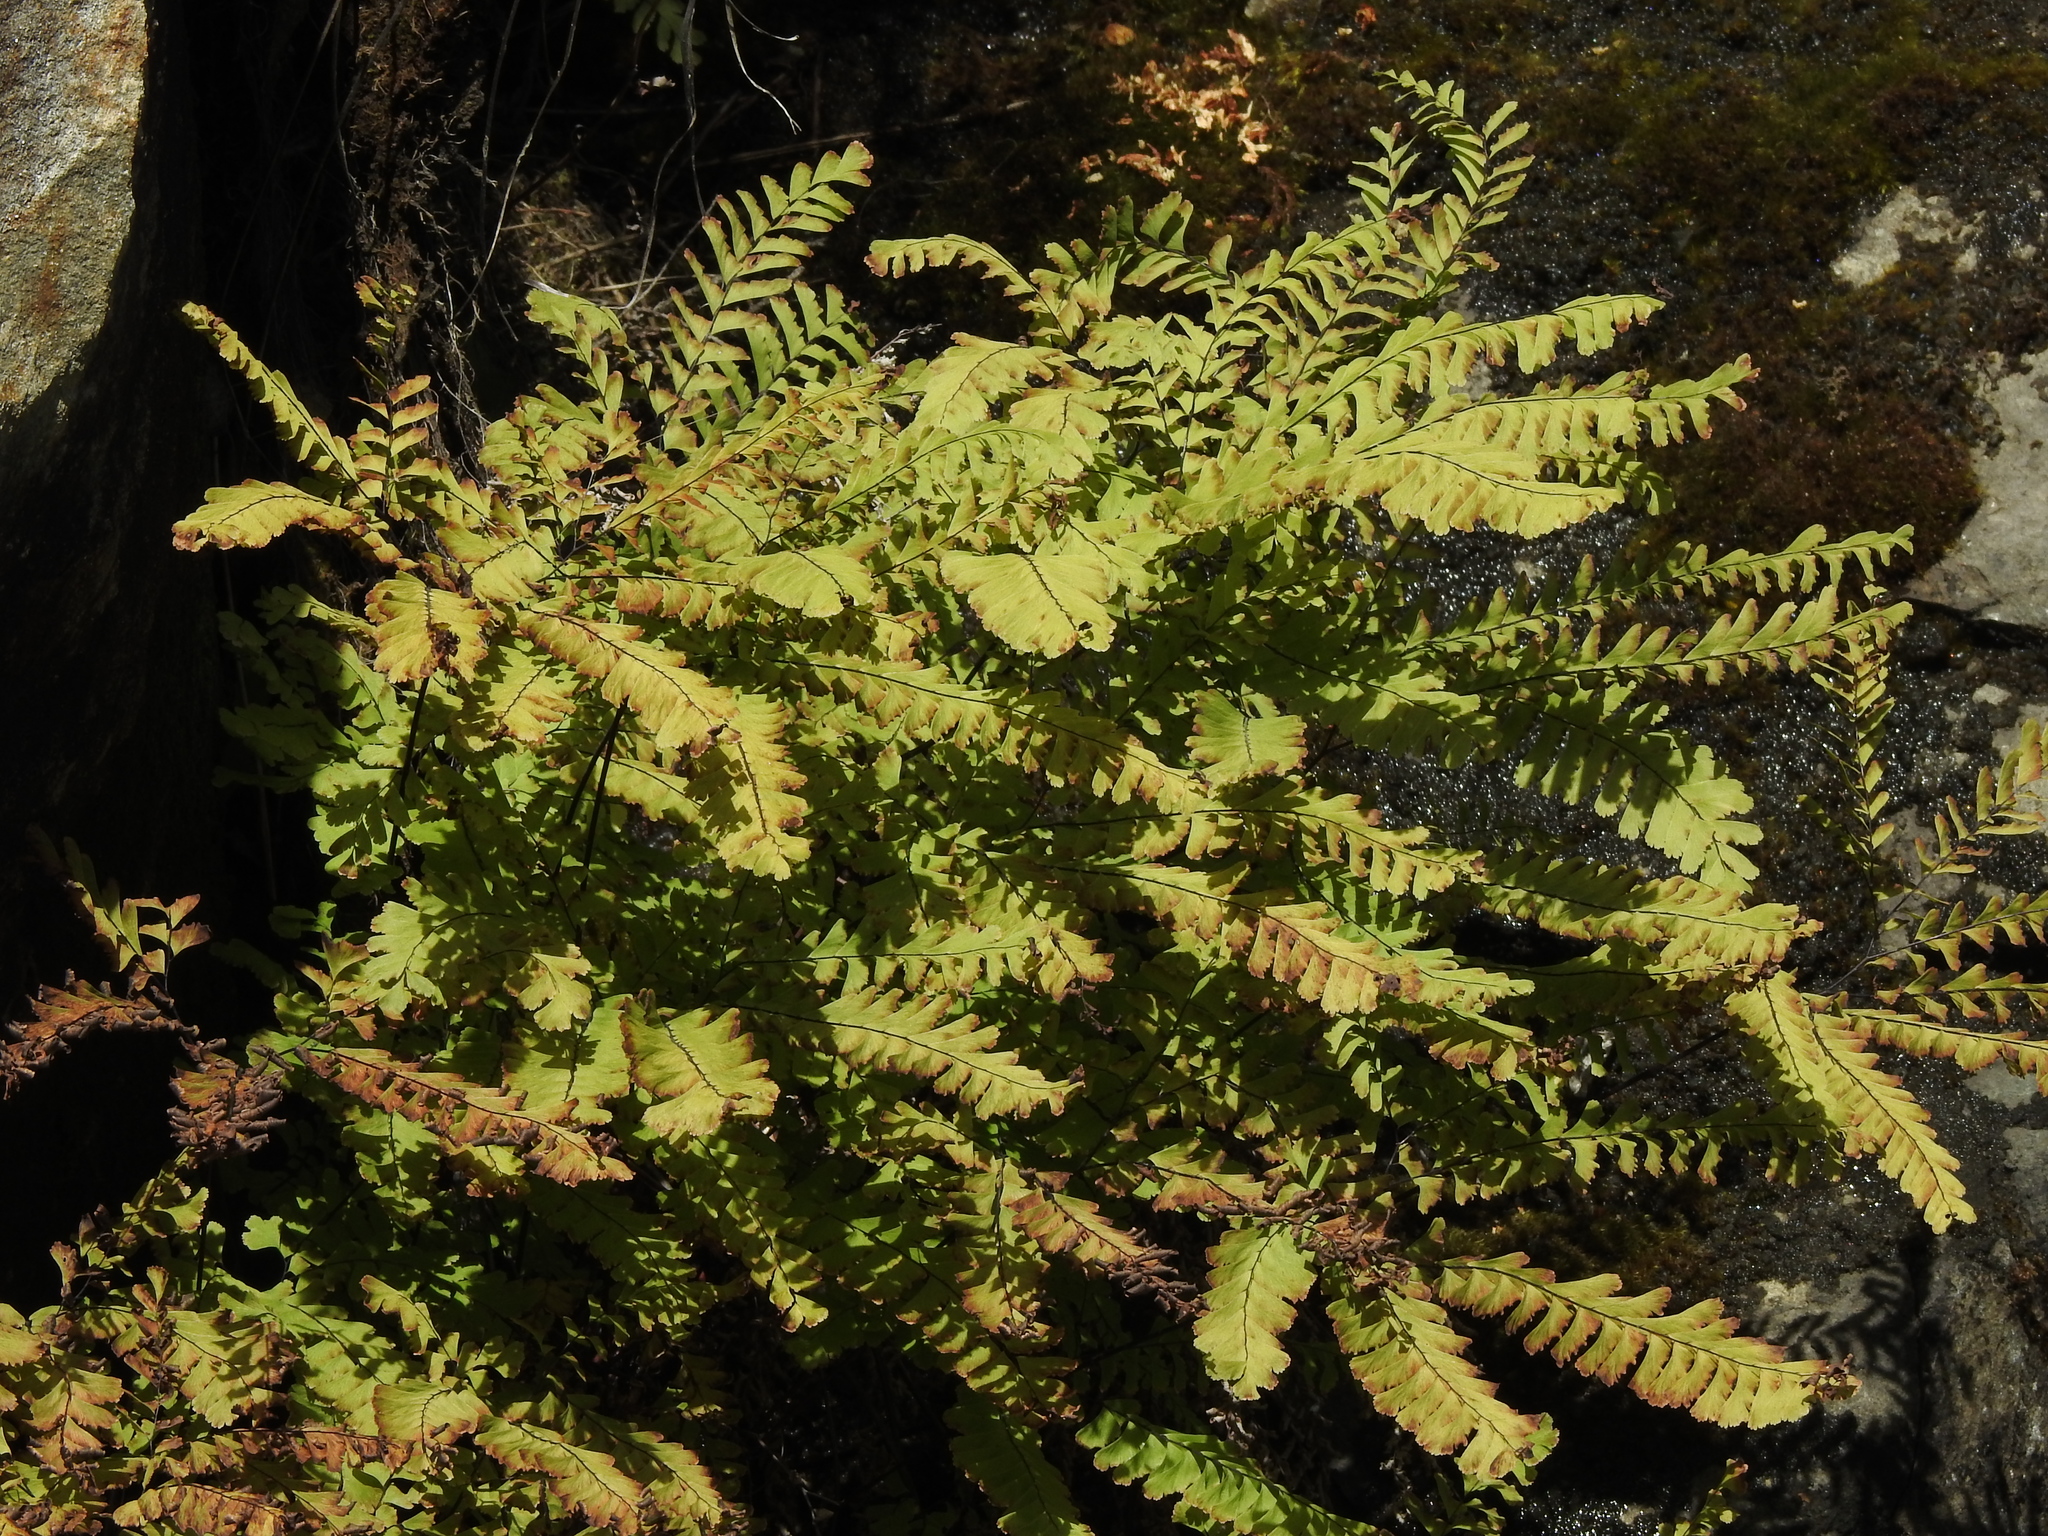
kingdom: Plantae
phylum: Tracheophyta
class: Polypodiopsida
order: Polypodiales
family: Pteridaceae
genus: Adiantum
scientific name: Adiantum aleuticum
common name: Aleutian maidenhair fern
